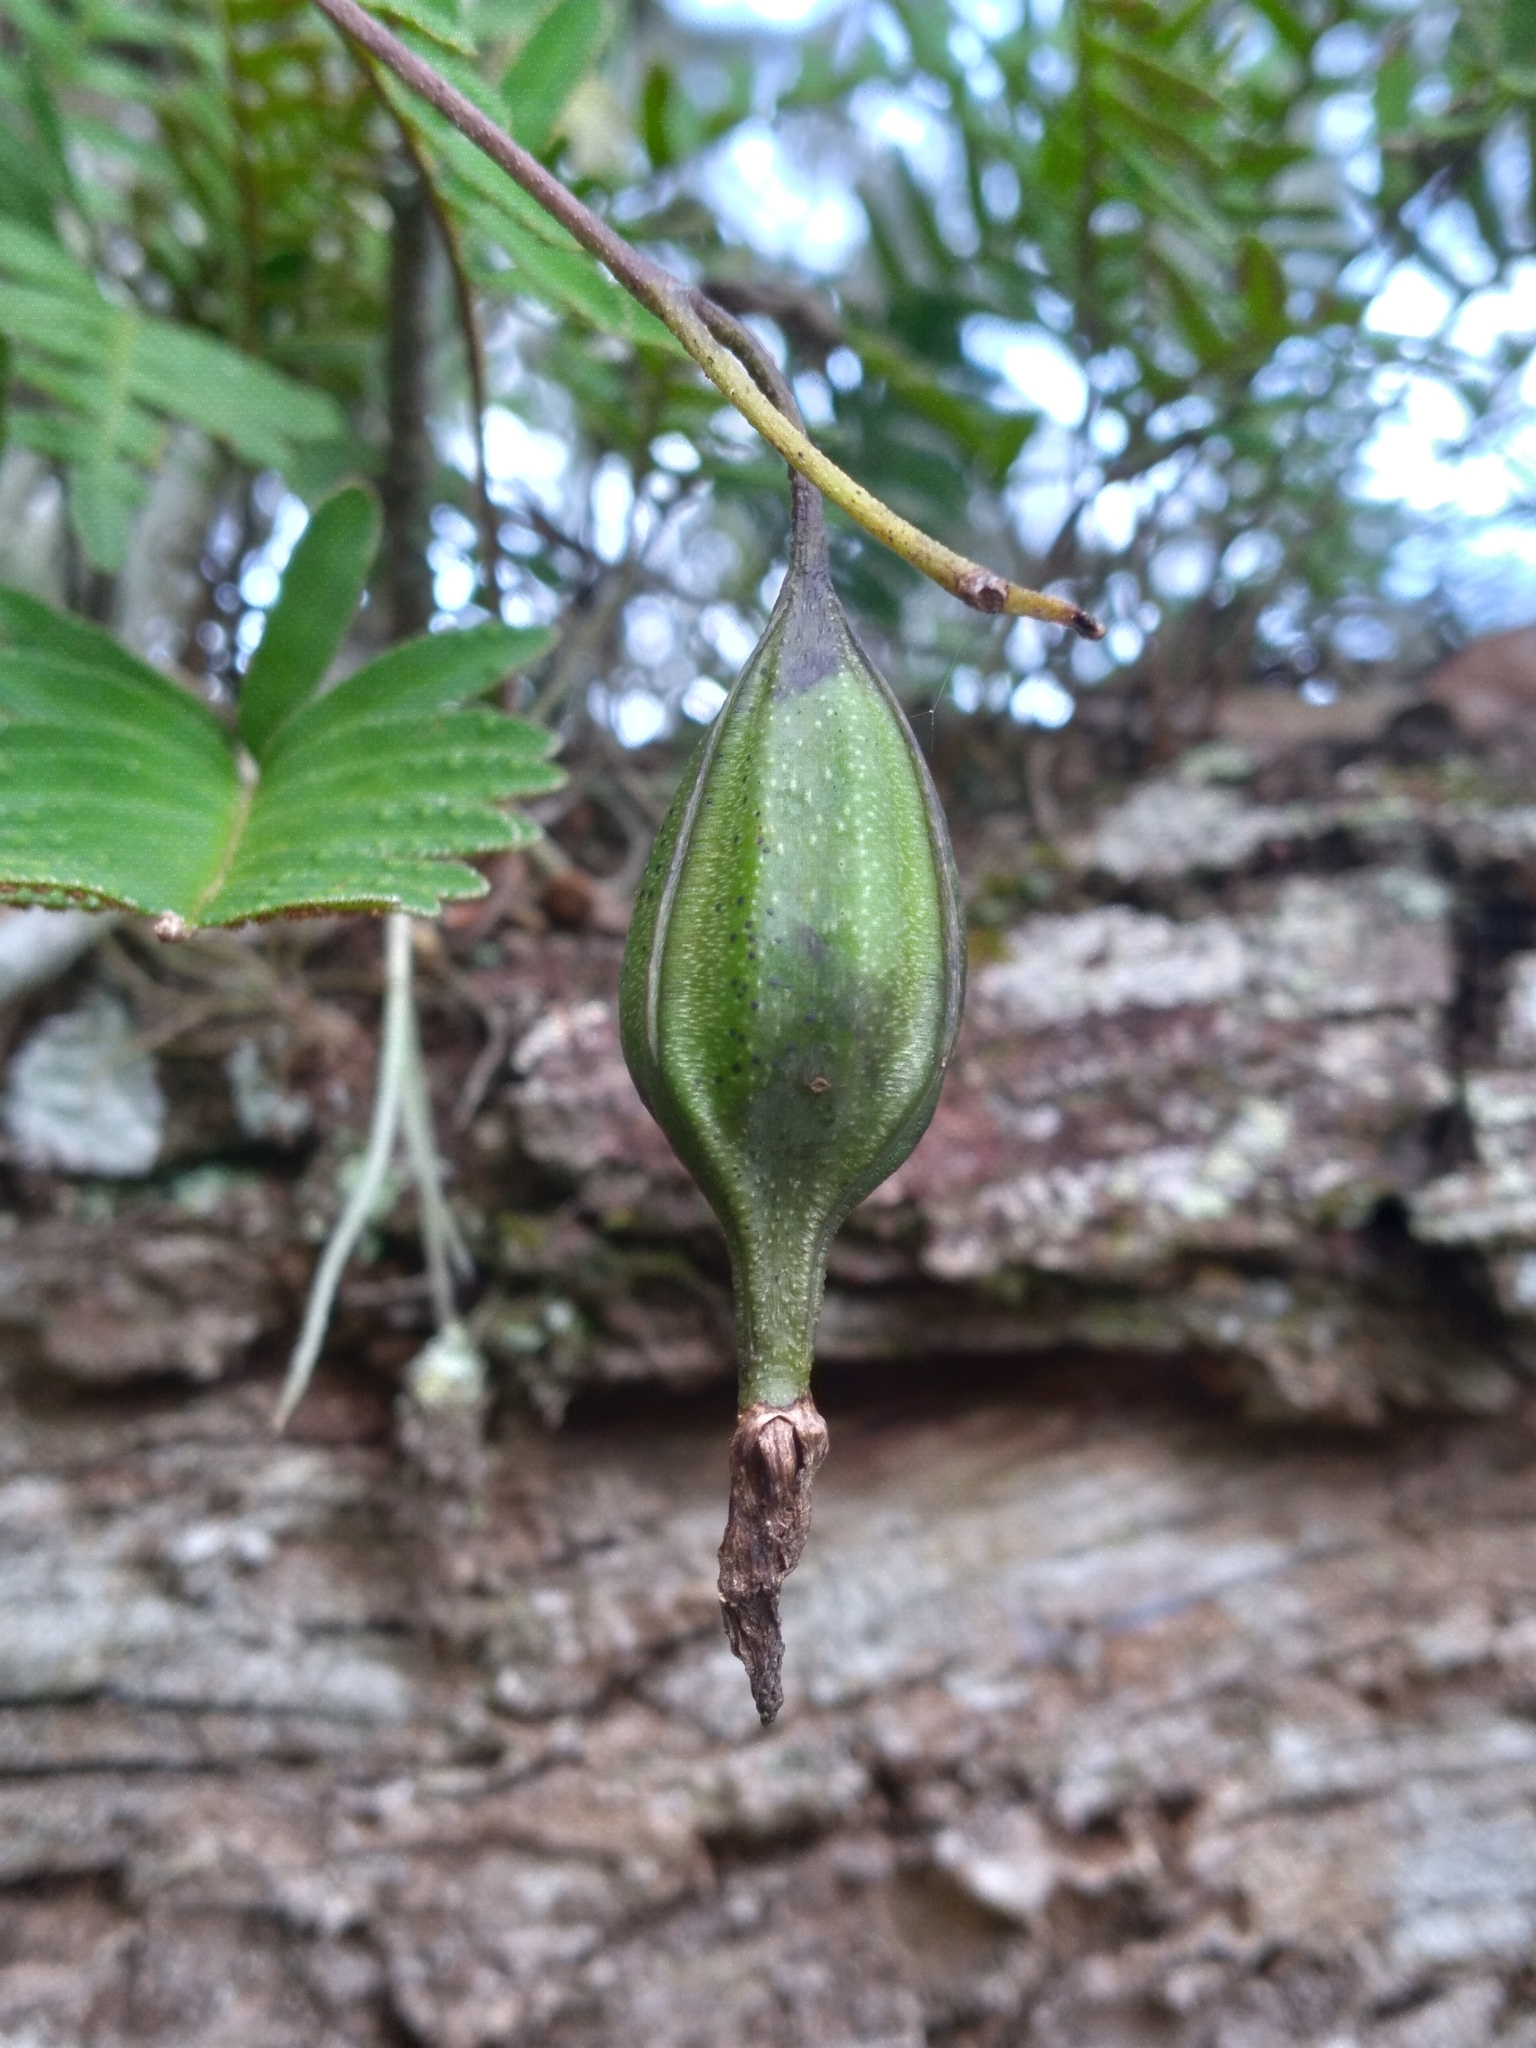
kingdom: Plantae
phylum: Tracheophyta
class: Liliopsida
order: Asparagales
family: Orchidaceae
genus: Encyclia
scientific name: Encyclia tampensis
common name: Florida butterfly orchid
